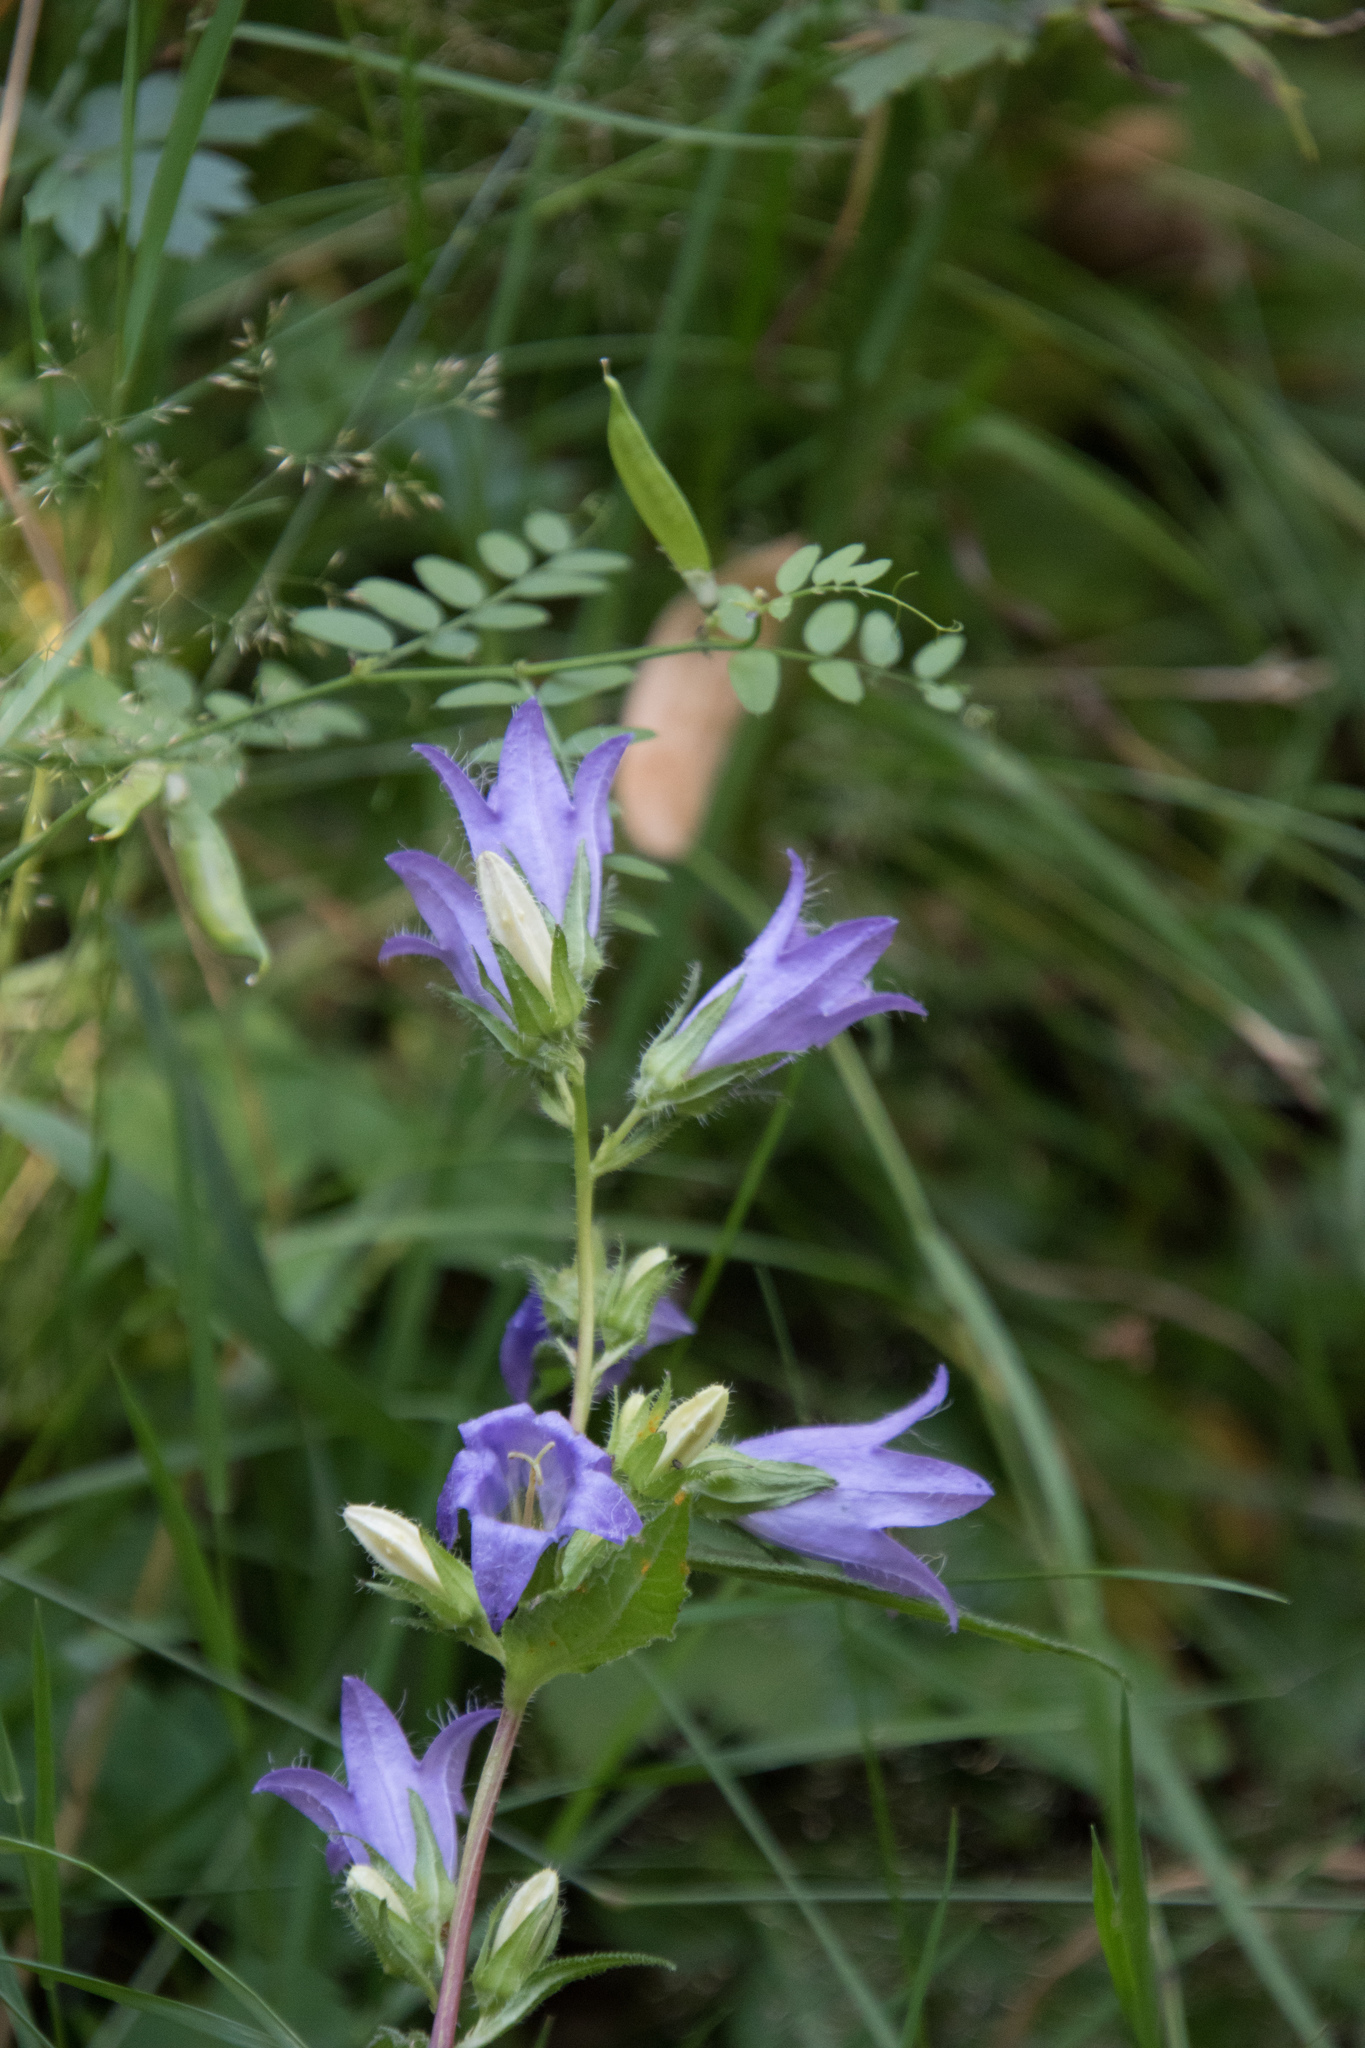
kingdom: Plantae
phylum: Tracheophyta
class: Magnoliopsida
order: Asterales
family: Campanulaceae
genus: Campanula
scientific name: Campanula trachelium
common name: Nettle-leaved bellflower
